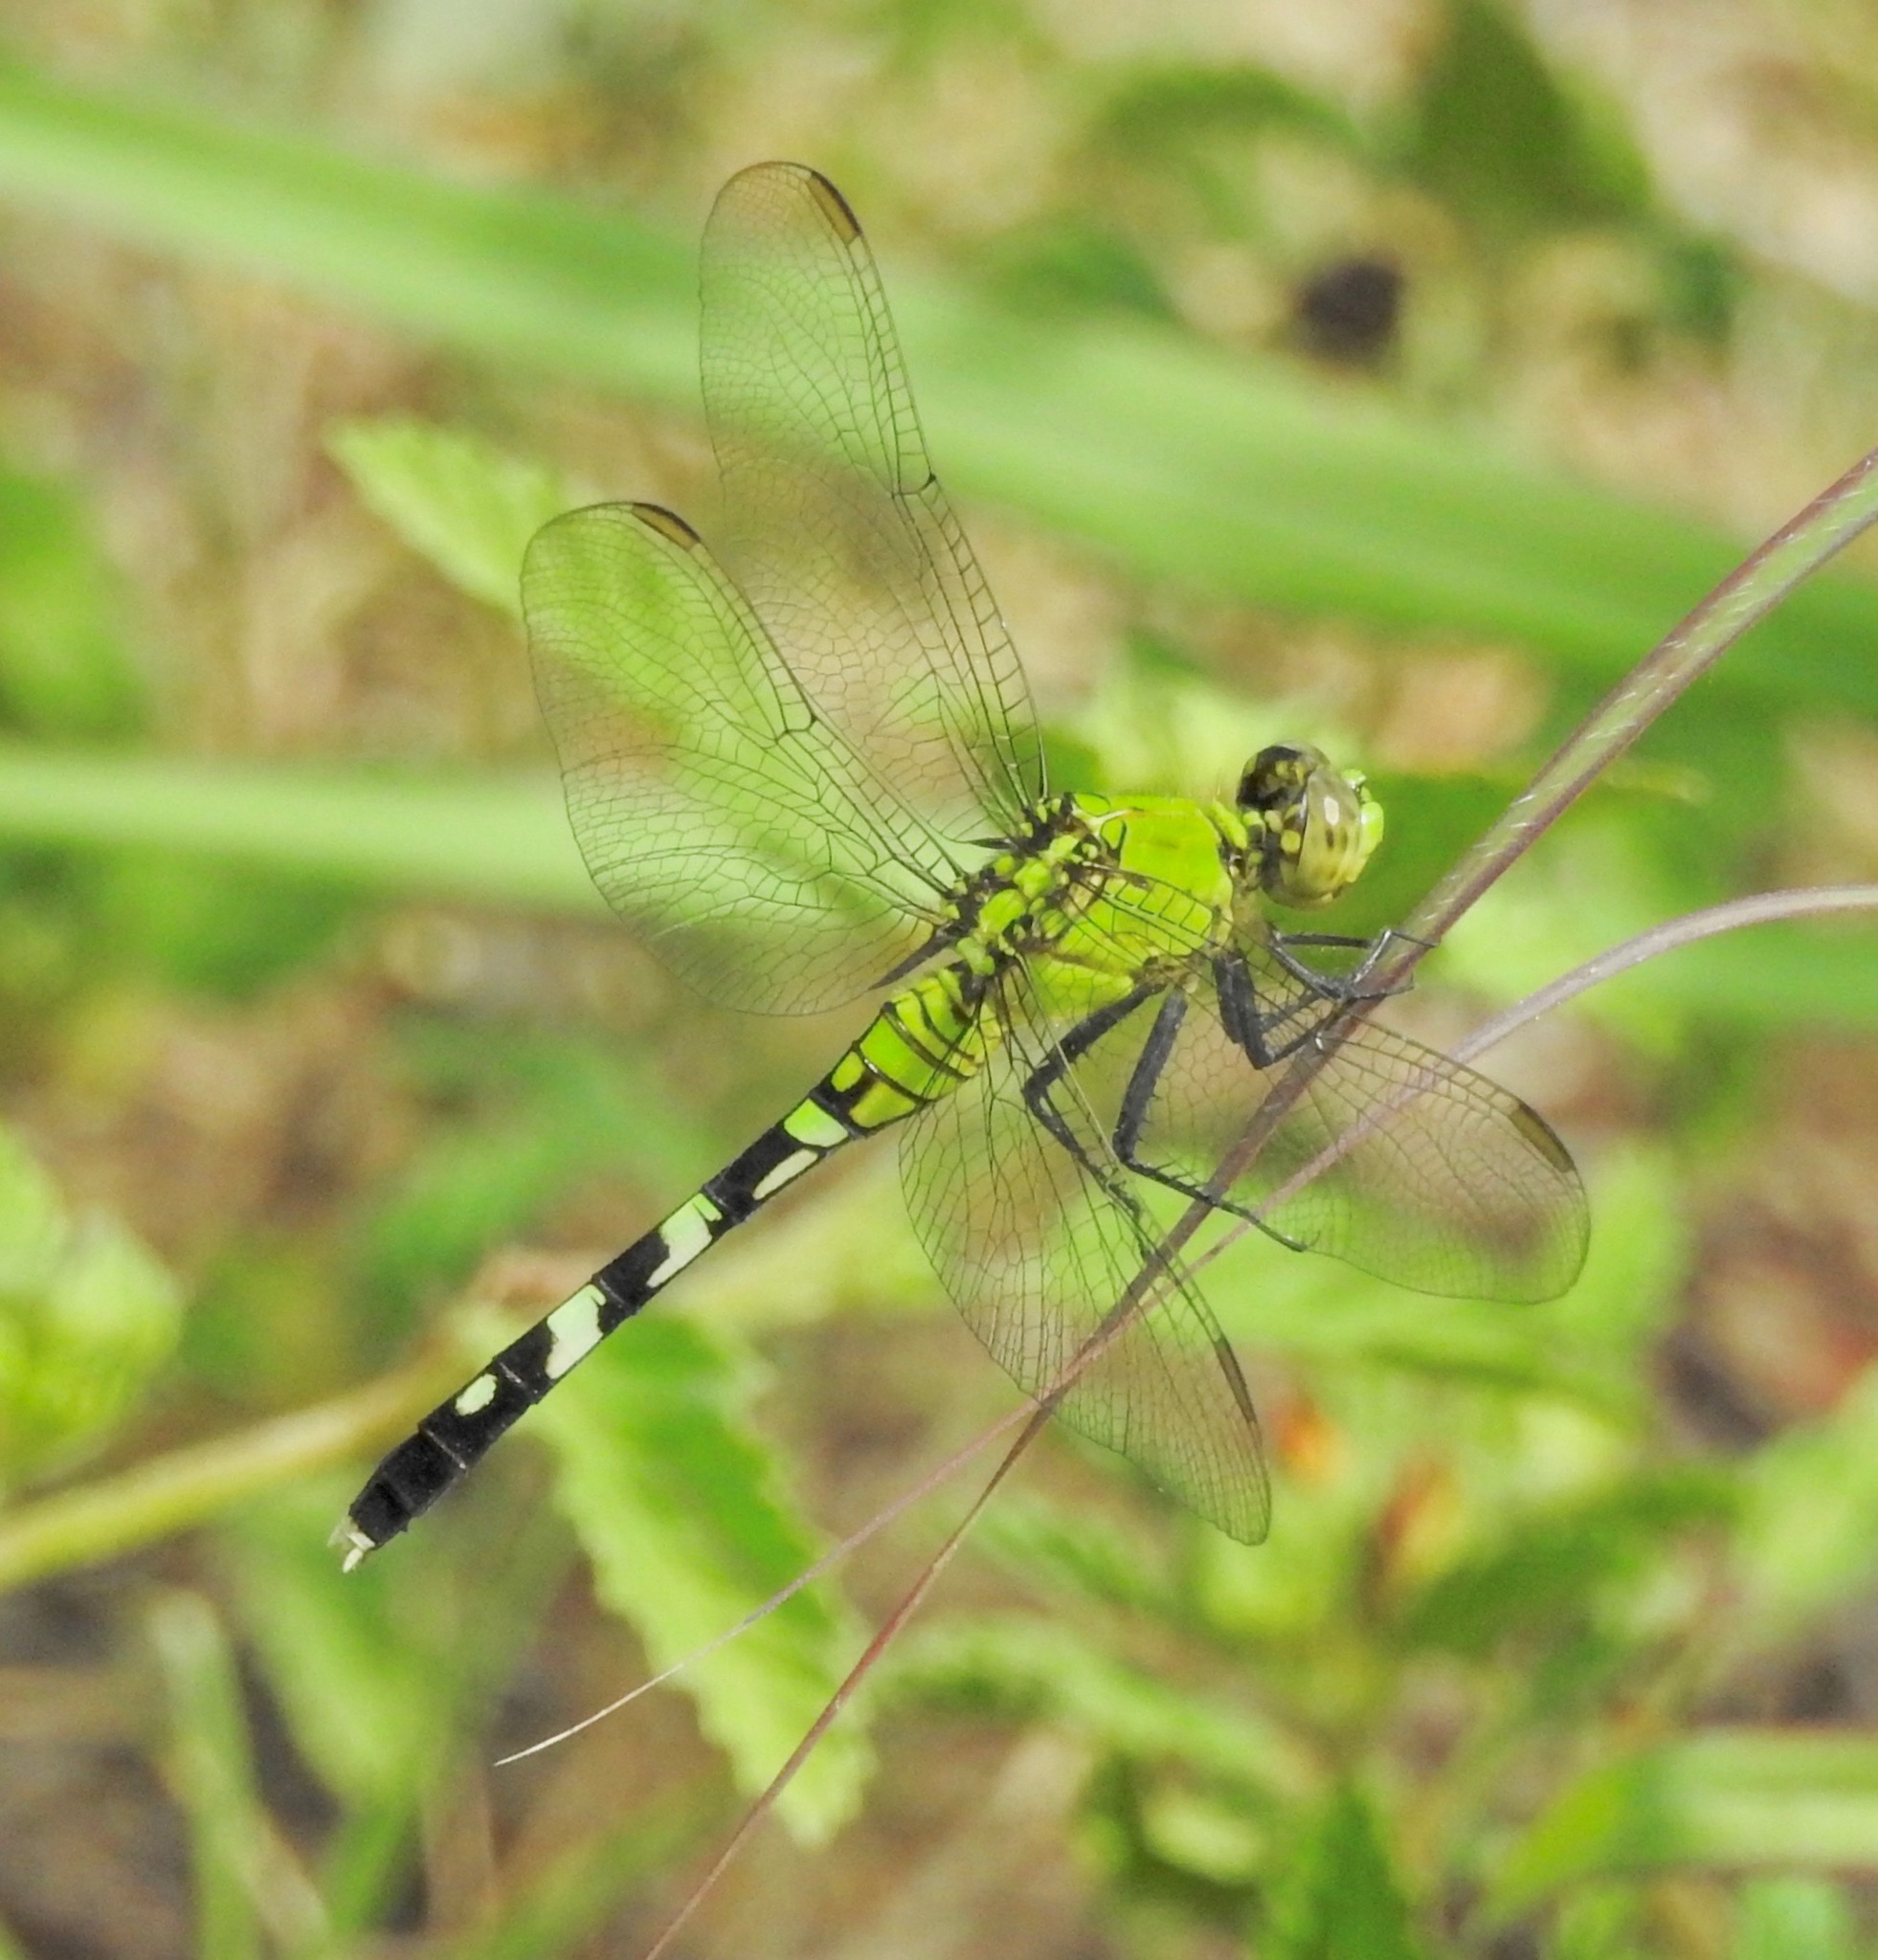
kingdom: Animalia
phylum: Arthropoda
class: Insecta
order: Odonata
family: Libellulidae
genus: Erythemis
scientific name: Erythemis simplicicollis
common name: Eastern pondhawk
